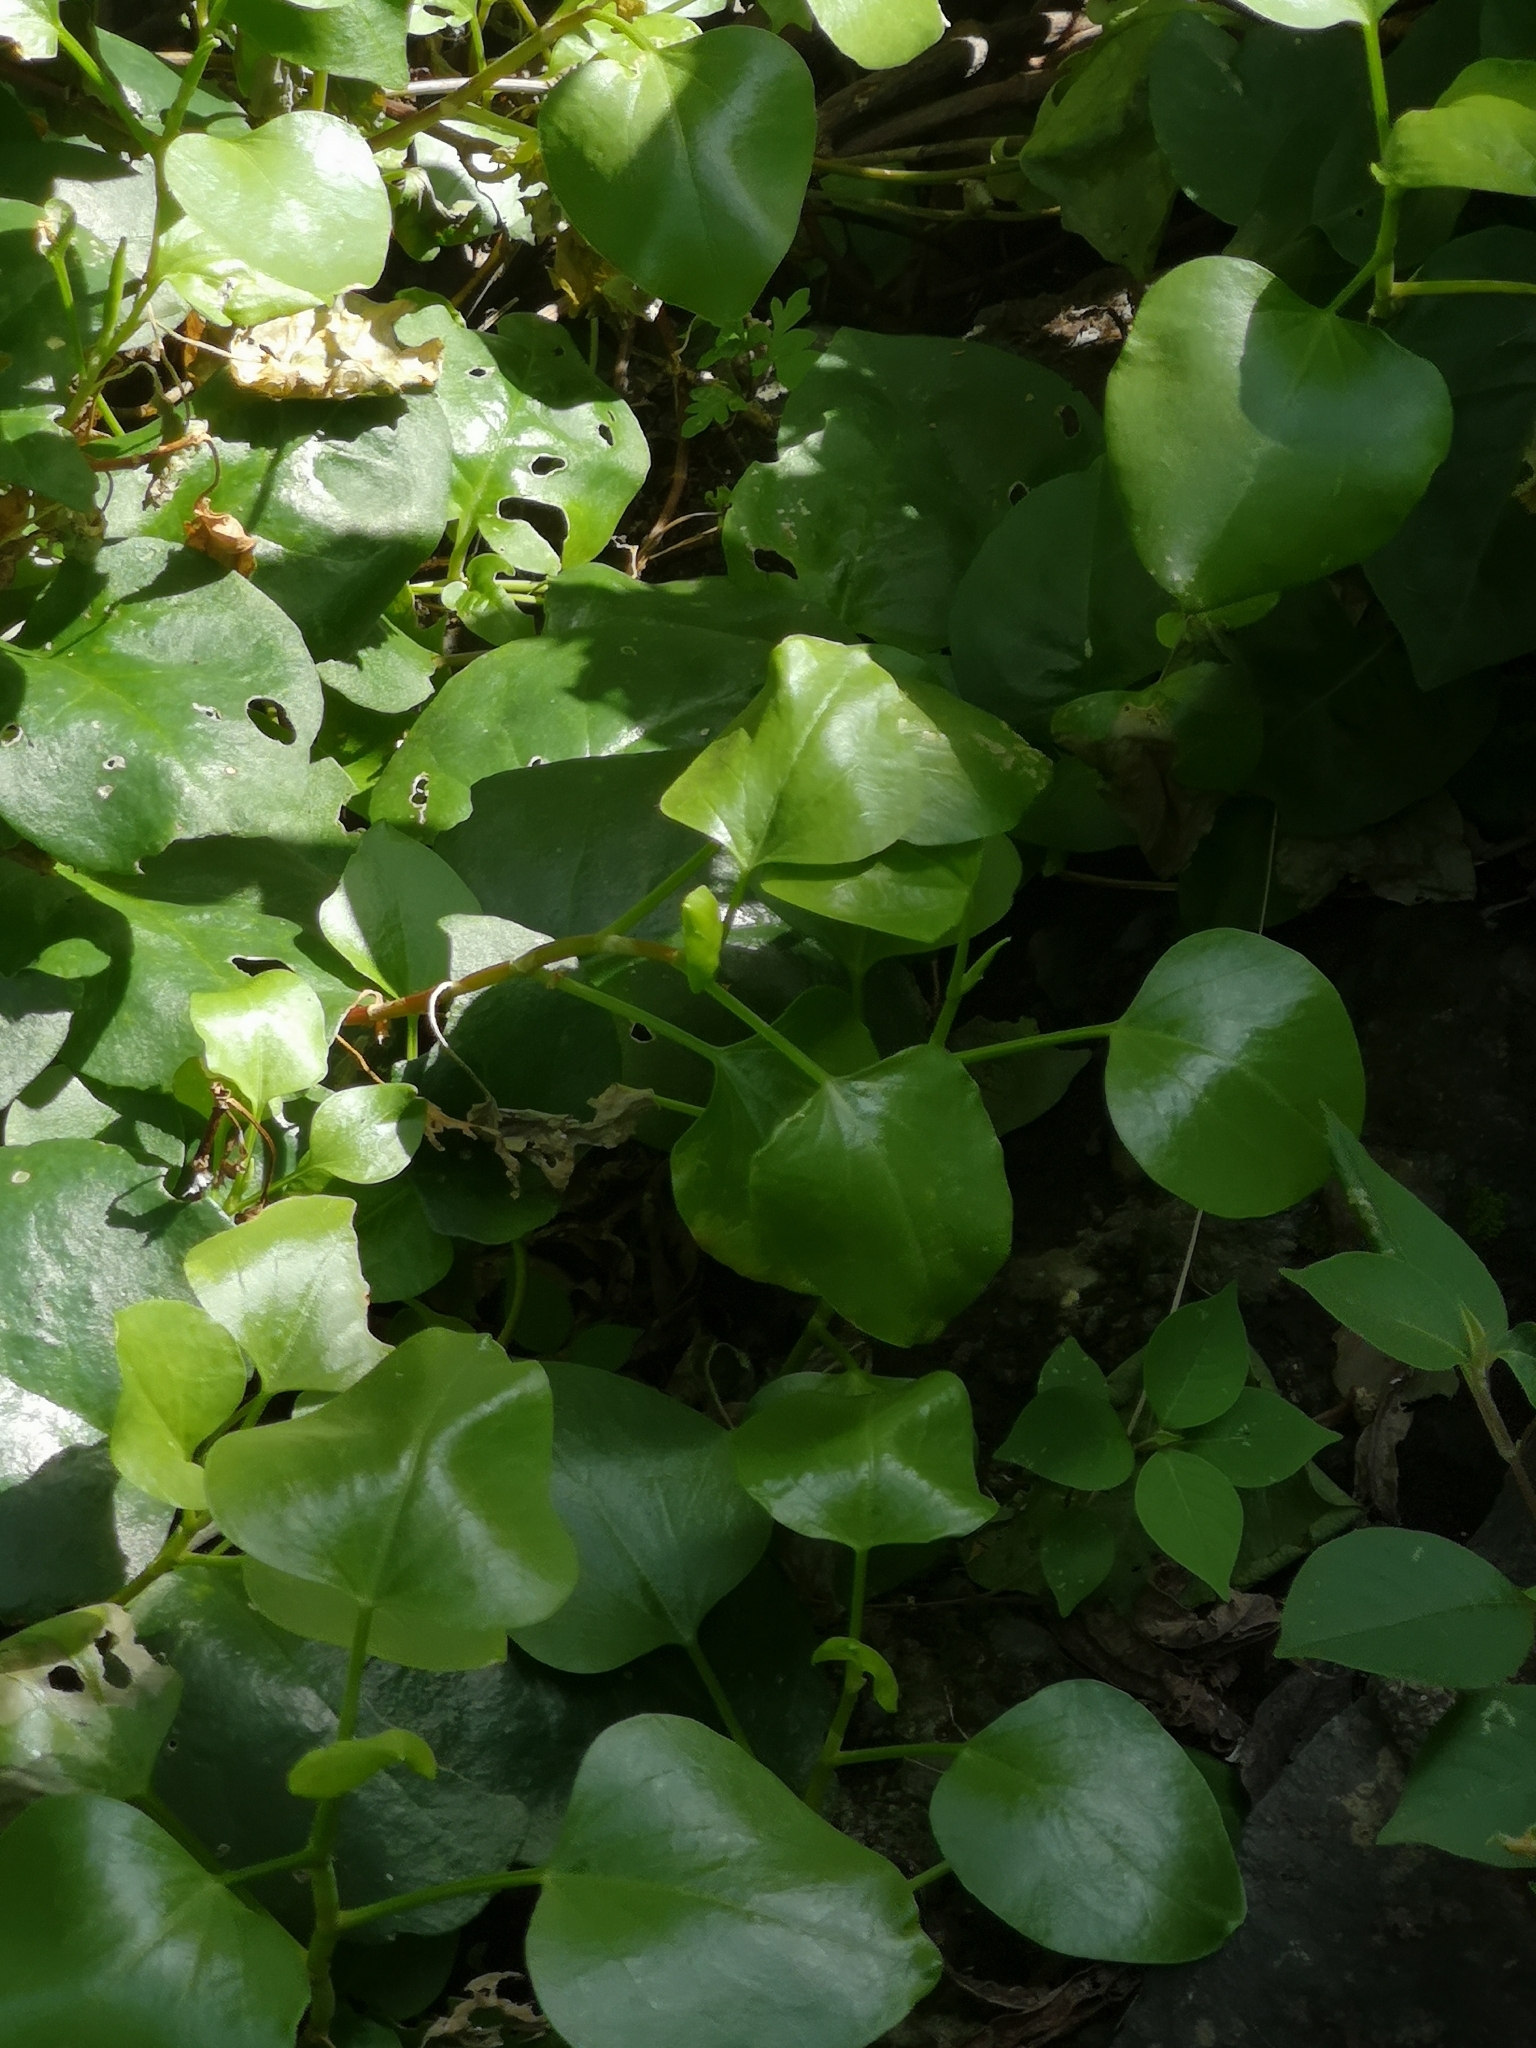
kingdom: Plantae
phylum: Tracheophyta
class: Magnoliopsida
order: Caryophyllales
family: Polygonaceae
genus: Rumex
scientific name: Rumex lunaria
